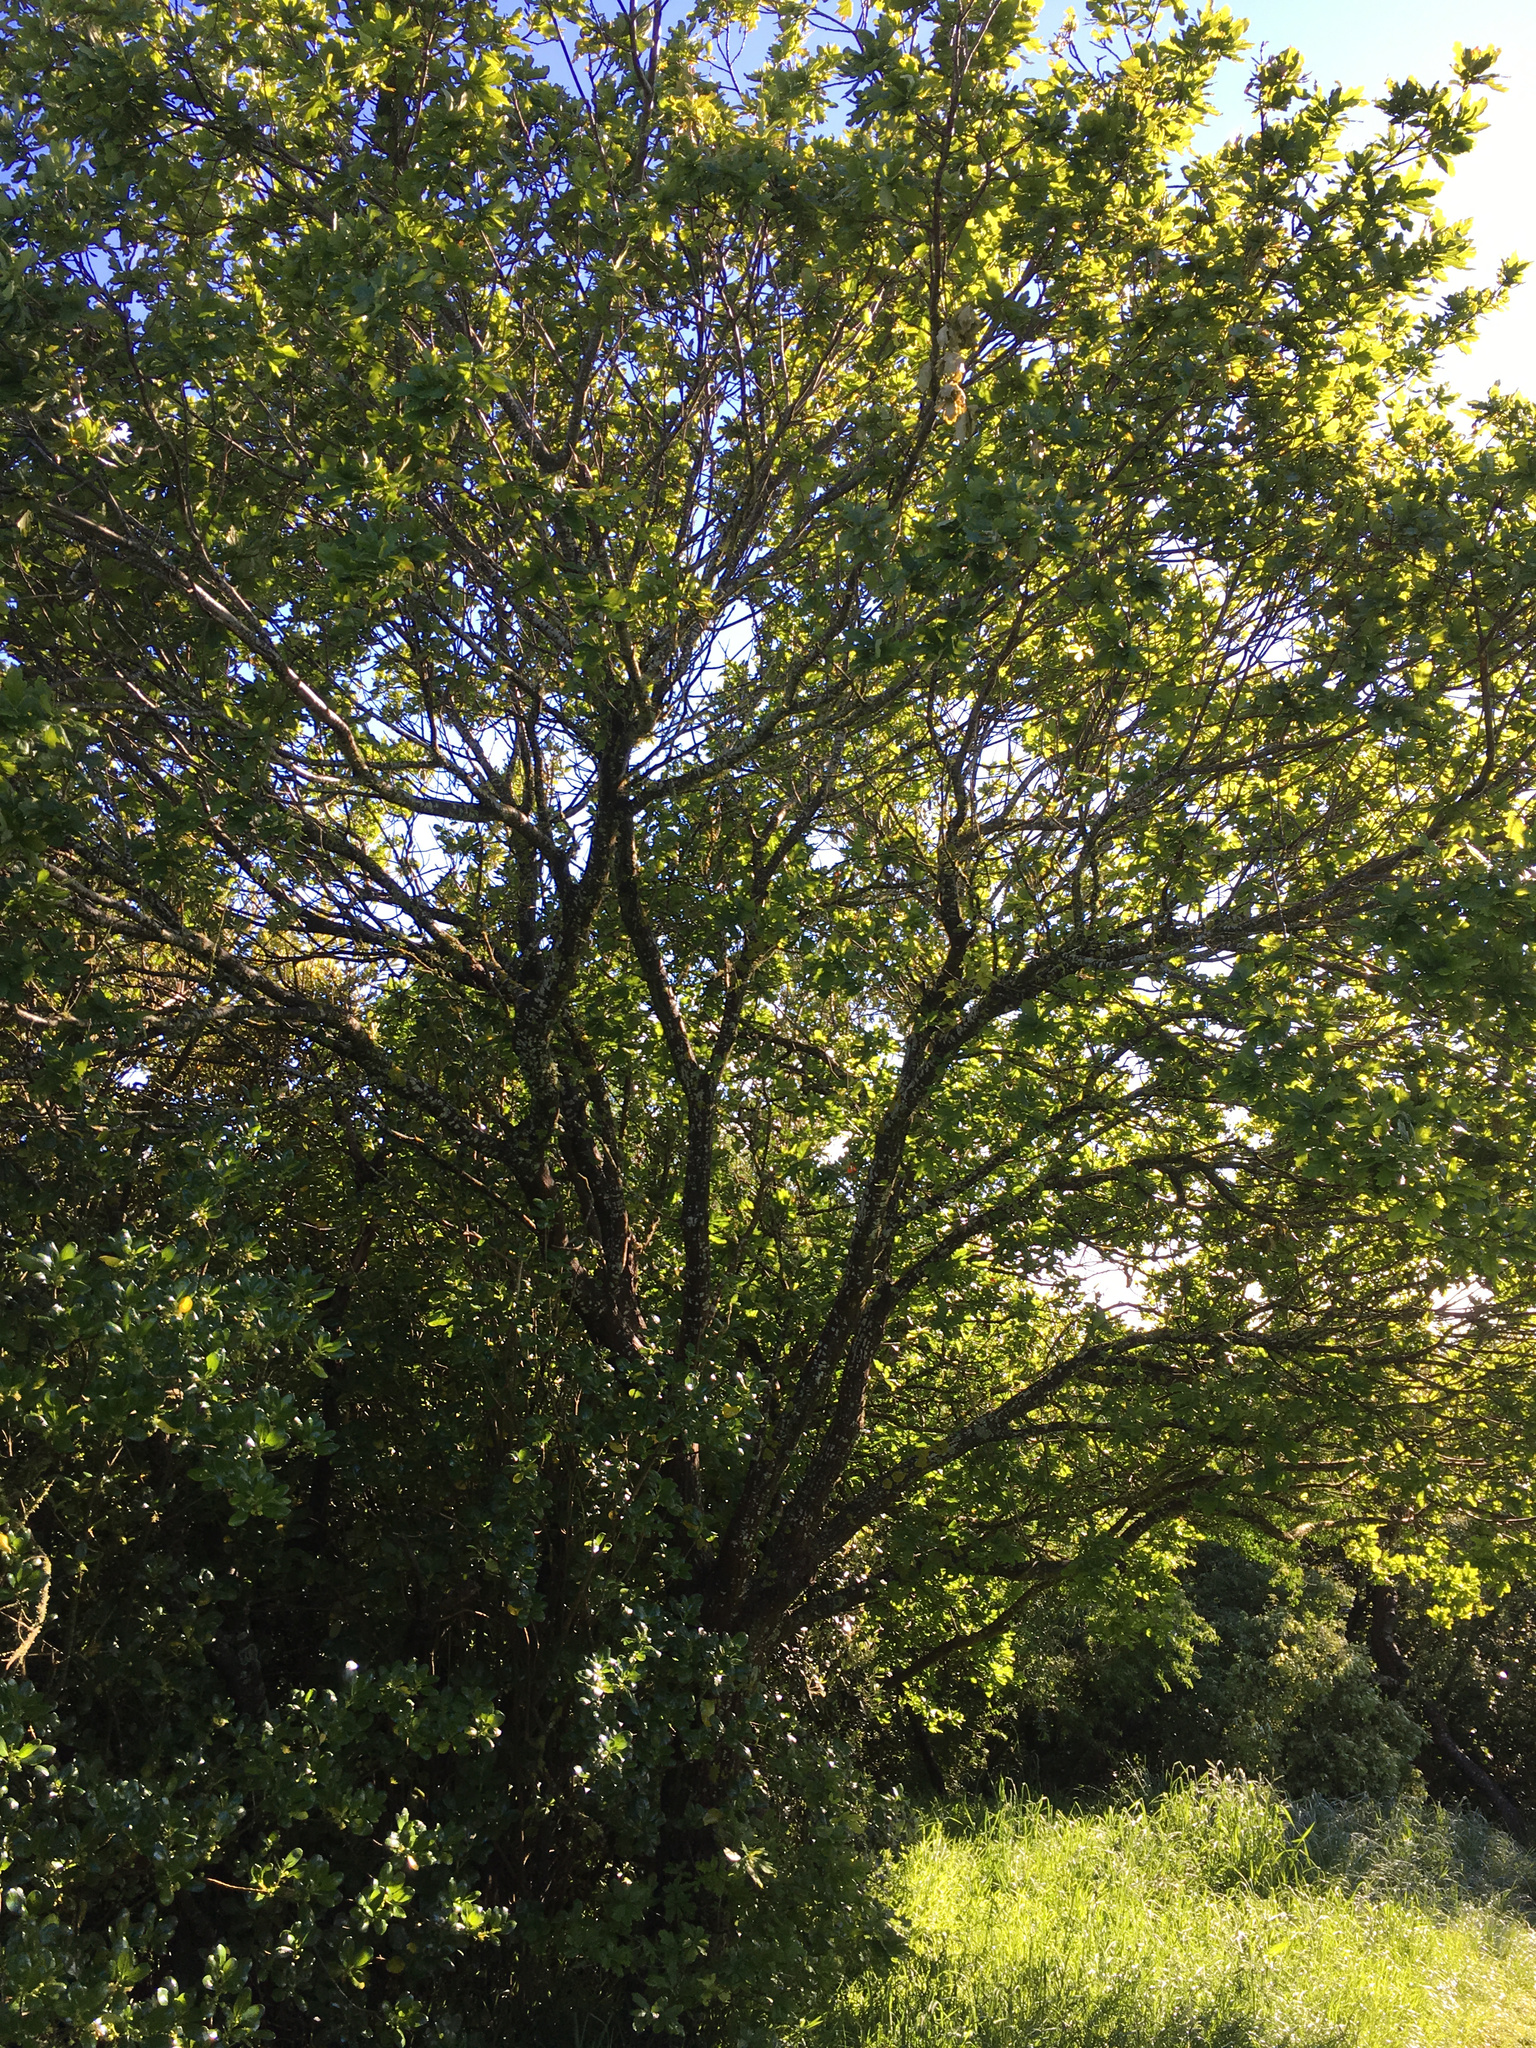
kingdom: Plantae
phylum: Tracheophyta
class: Magnoliopsida
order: Fagales
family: Fagaceae
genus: Quercus
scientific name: Quercus robur
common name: Pedunculate oak
